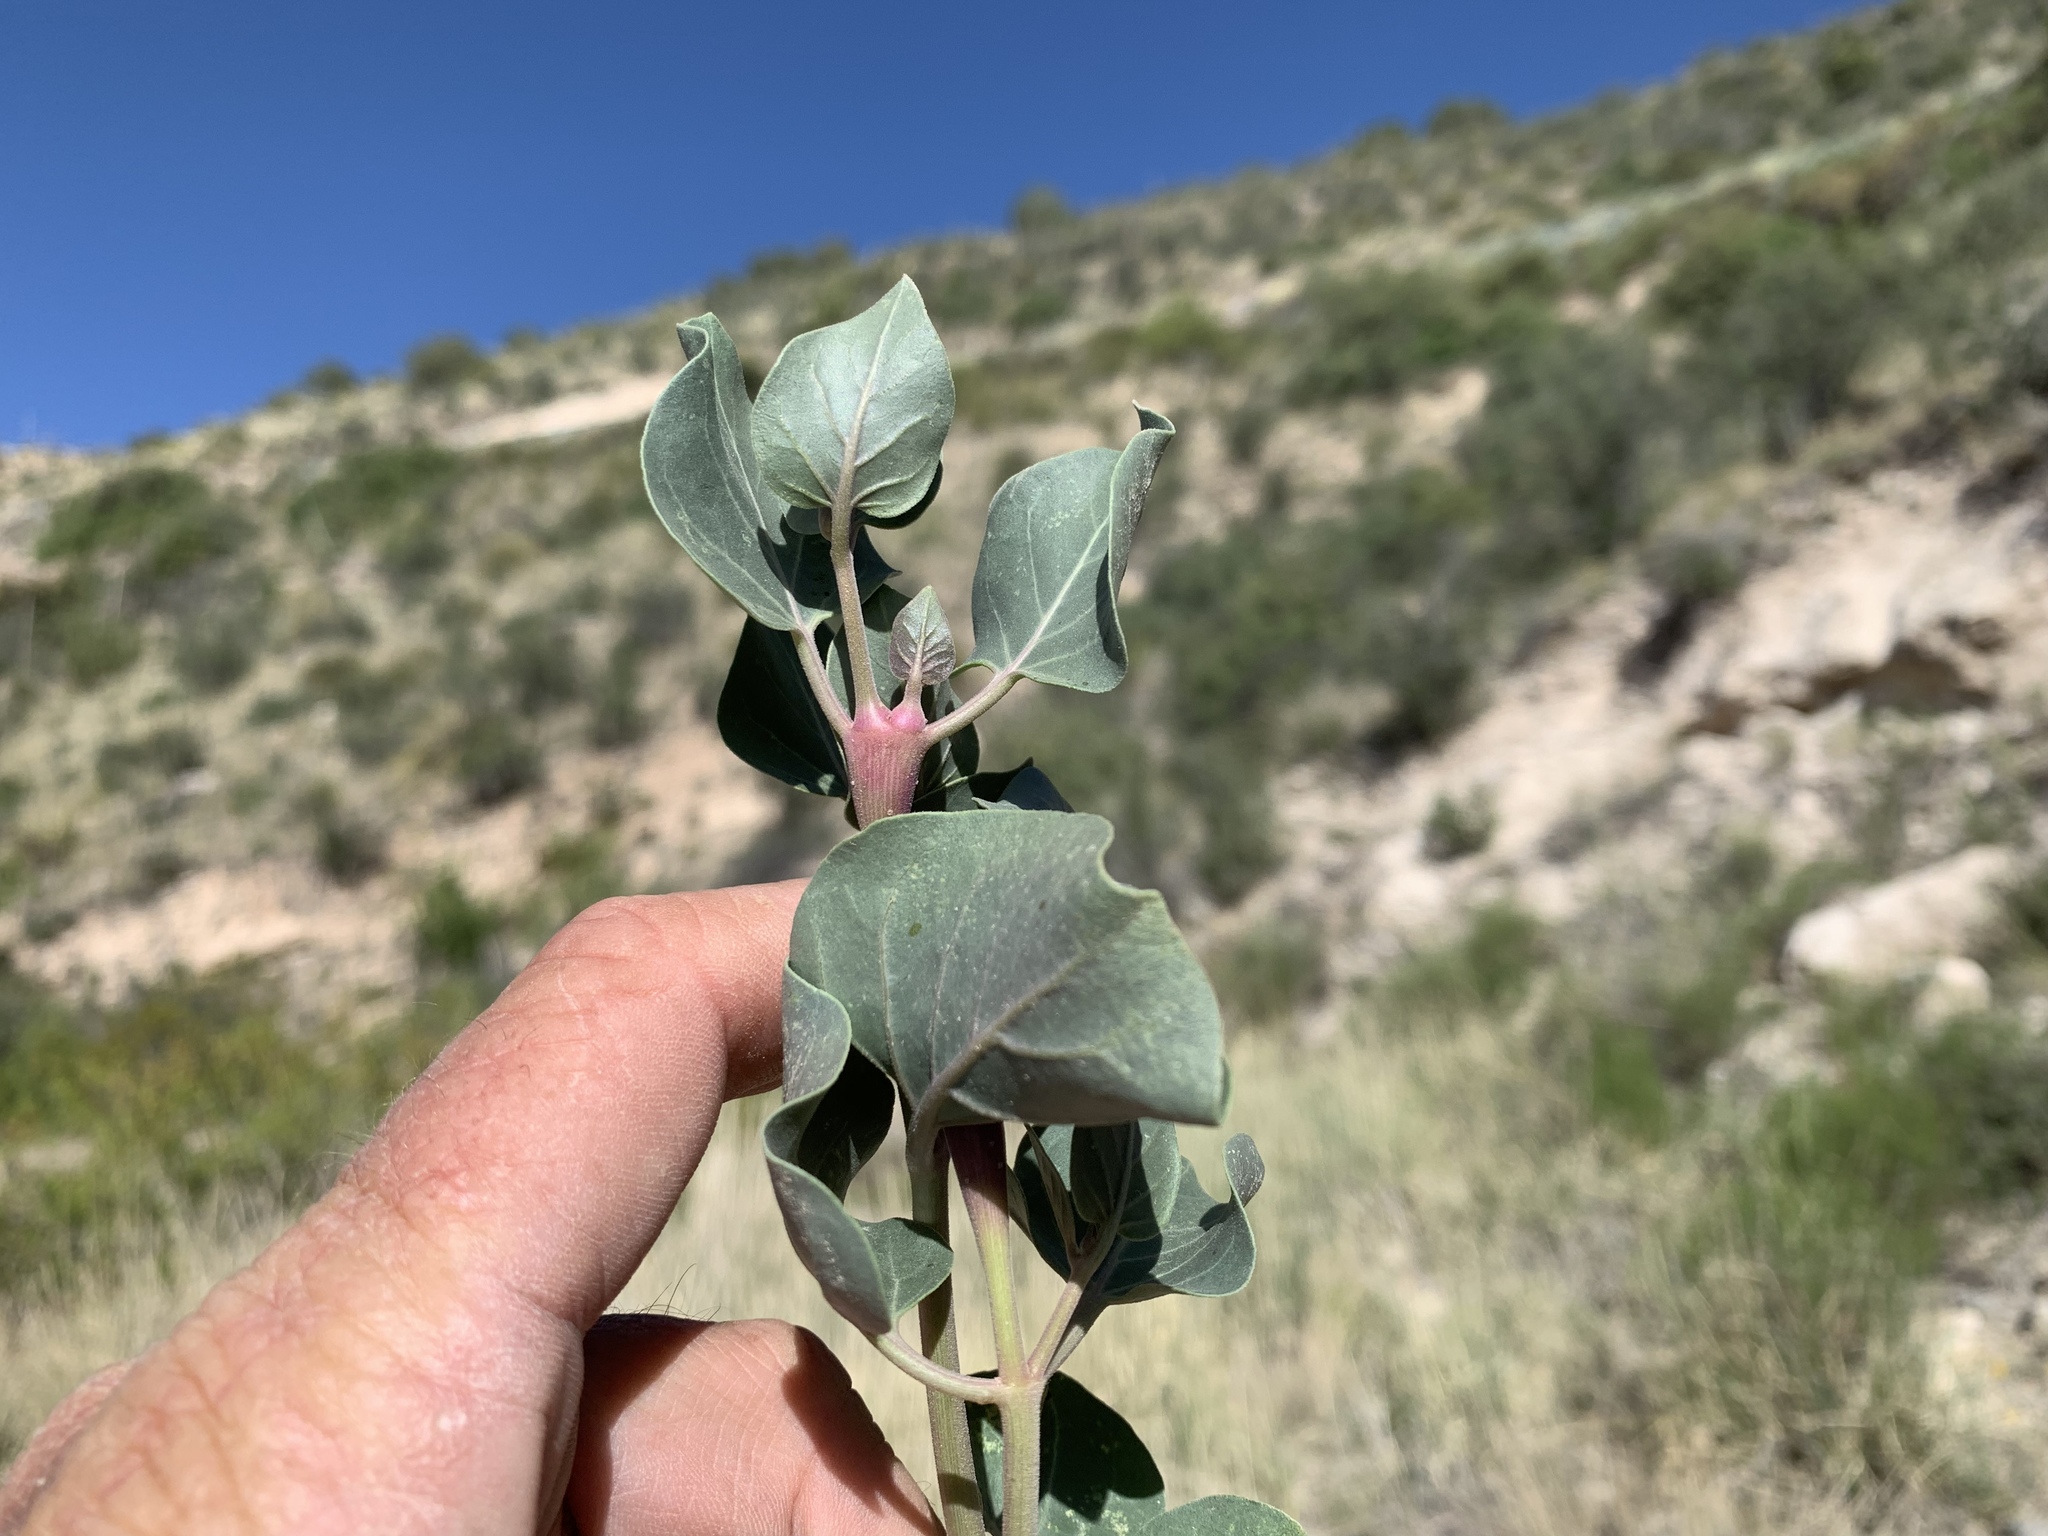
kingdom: Plantae
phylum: Tracheophyta
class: Magnoliopsida
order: Caryophyllales
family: Nyctaginaceae
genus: Mirabilis
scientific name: Mirabilis multiflora
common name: Froebel's four-o'clock
